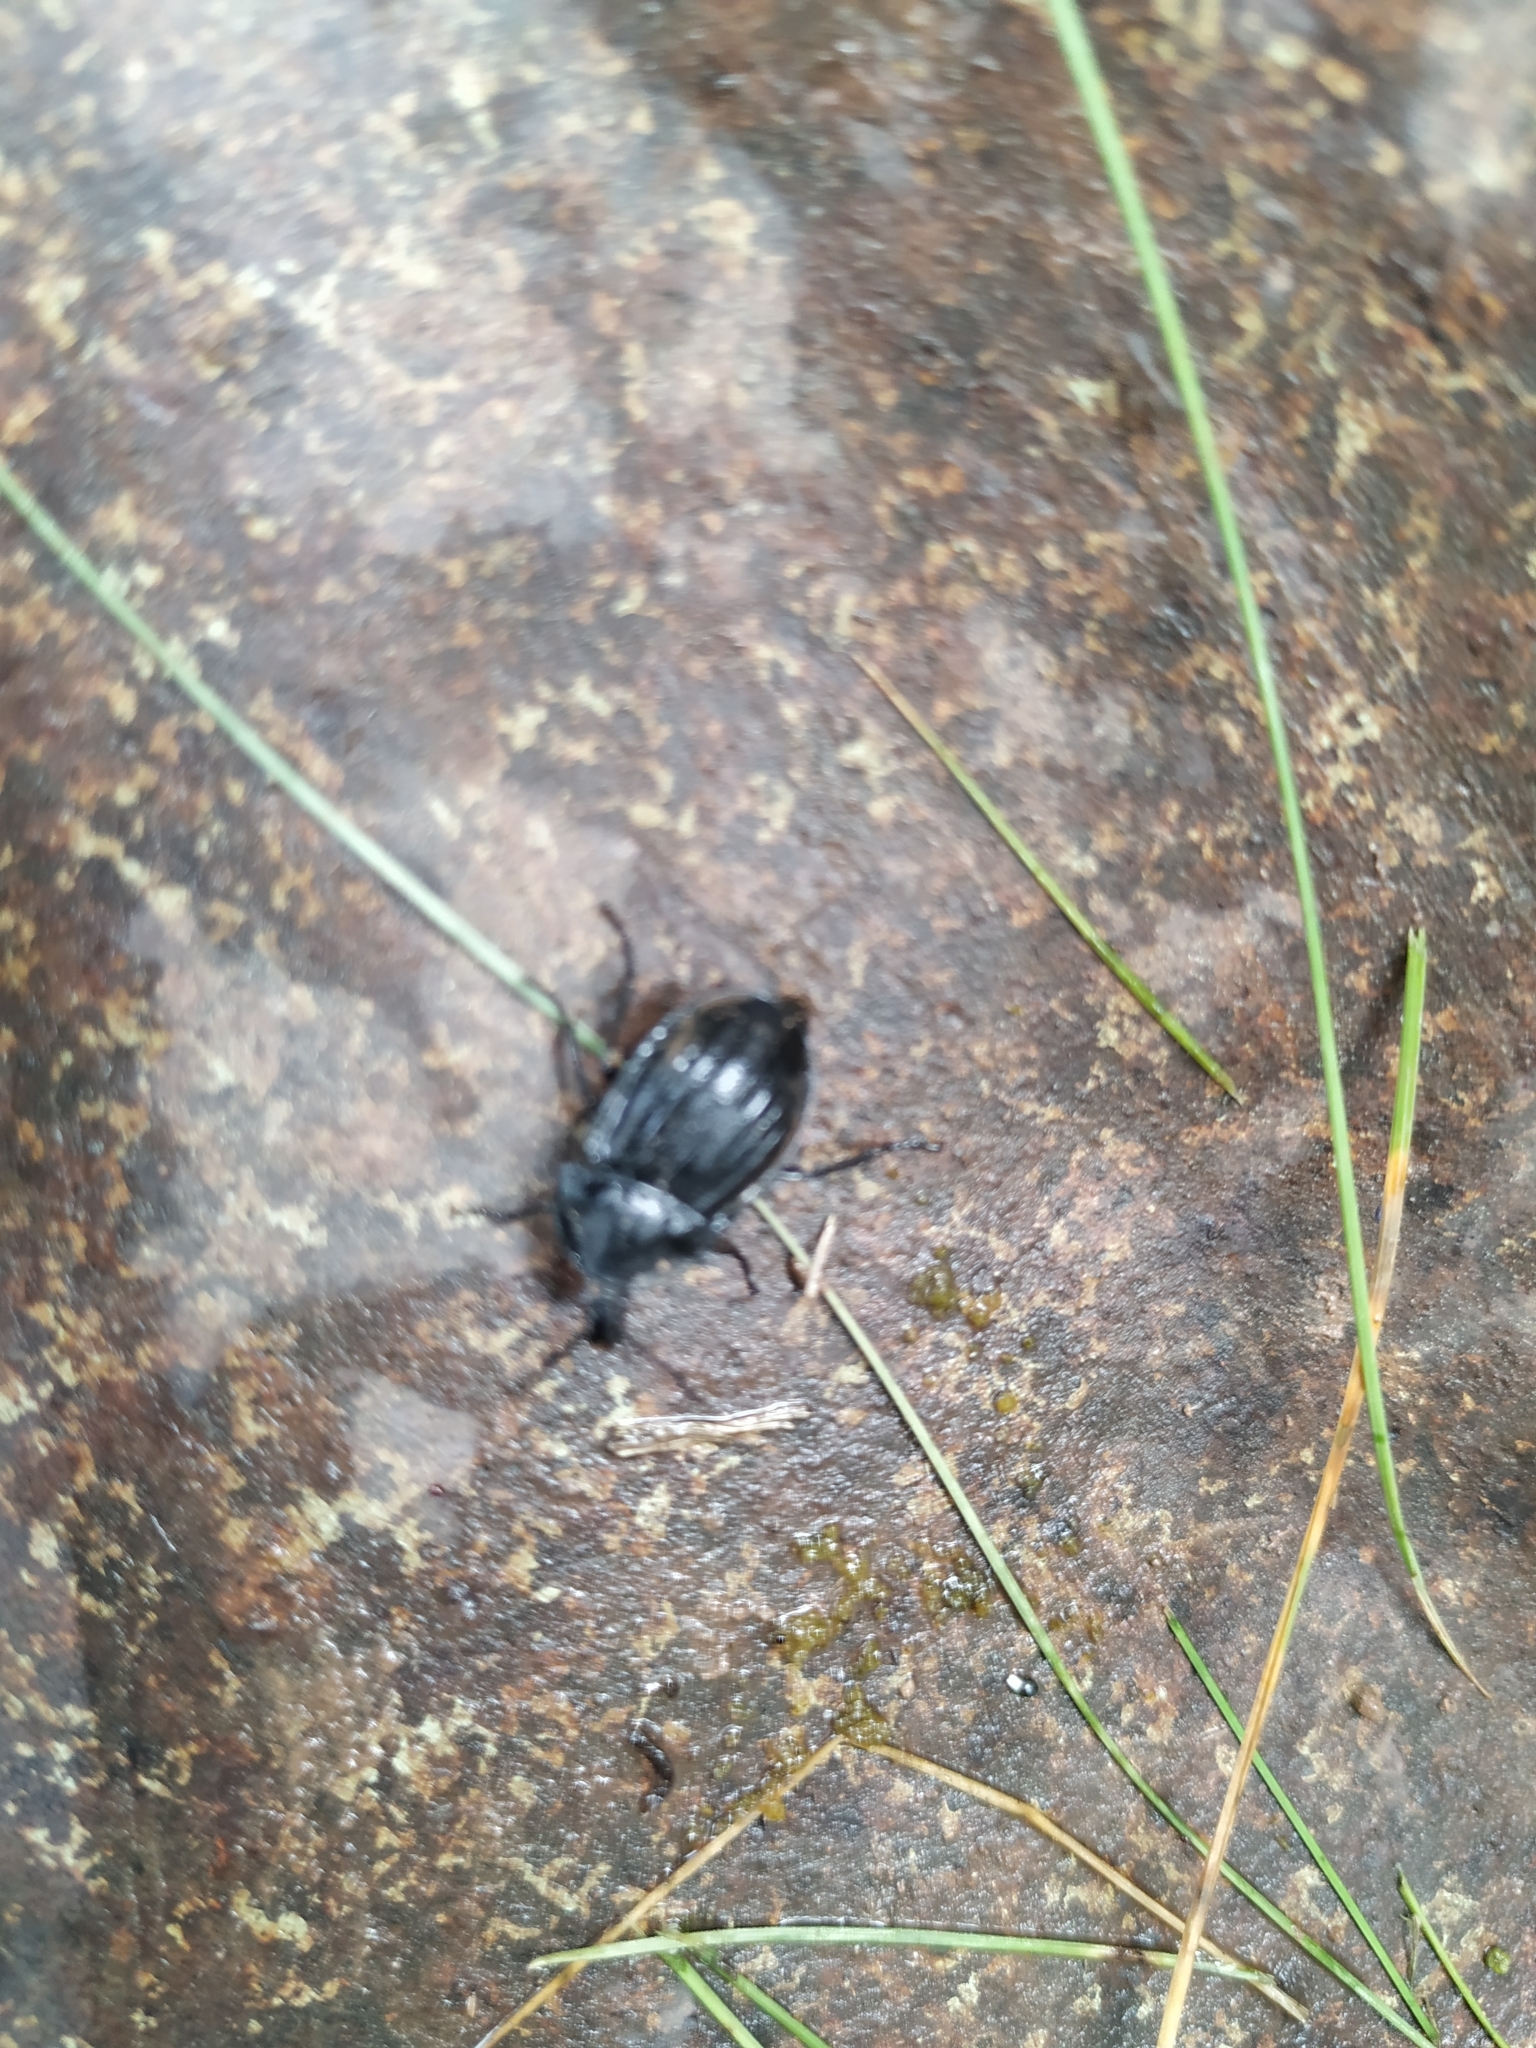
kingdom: Animalia
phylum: Arthropoda
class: Insecta
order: Coleoptera
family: Staphylinidae
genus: Silpha
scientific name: Silpha atrata
